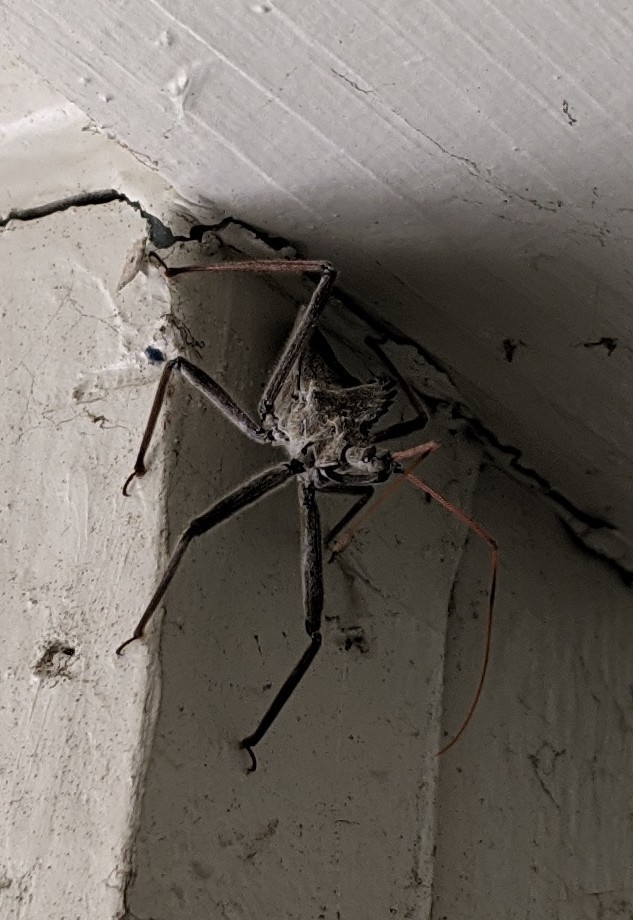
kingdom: Animalia
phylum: Arthropoda
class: Insecta
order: Hemiptera
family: Reduviidae
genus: Arilus
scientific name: Arilus cristatus
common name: North american wheel bug
